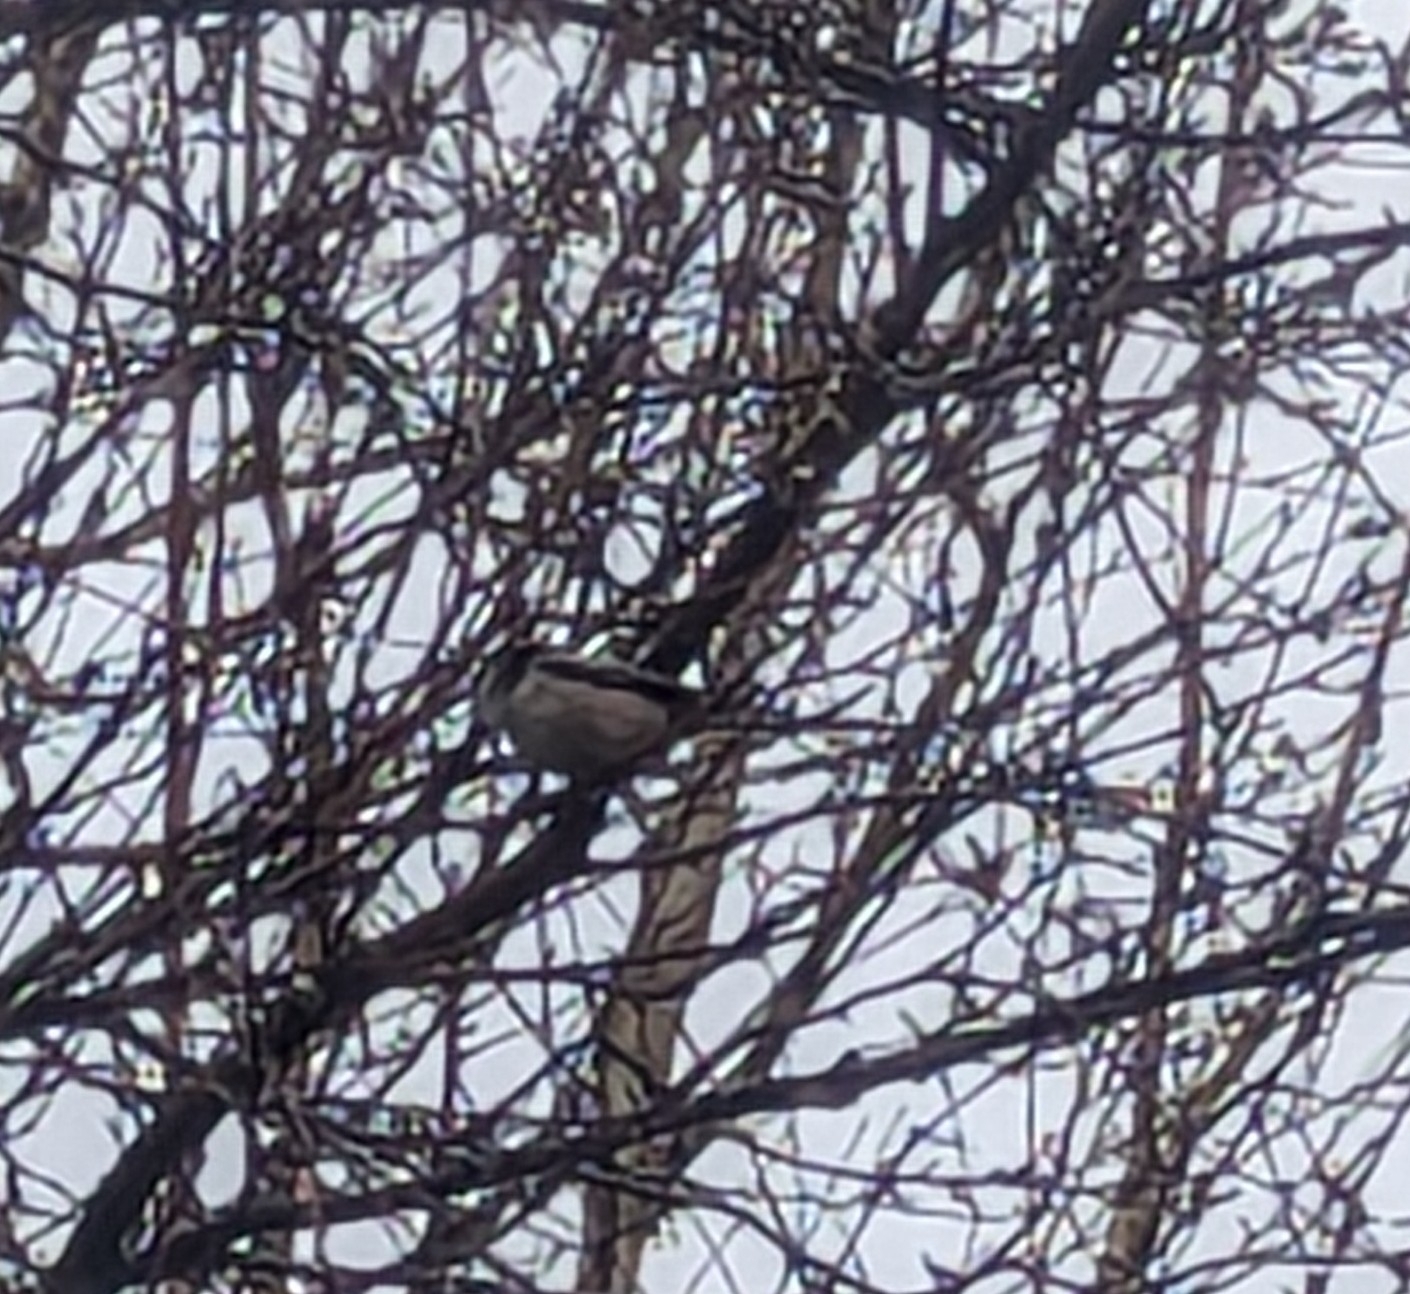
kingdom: Animalia
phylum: Chordata
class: Aves
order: Passeriformes
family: Aegithalidae
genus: Aegithalos
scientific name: Aegithalos caudatus
